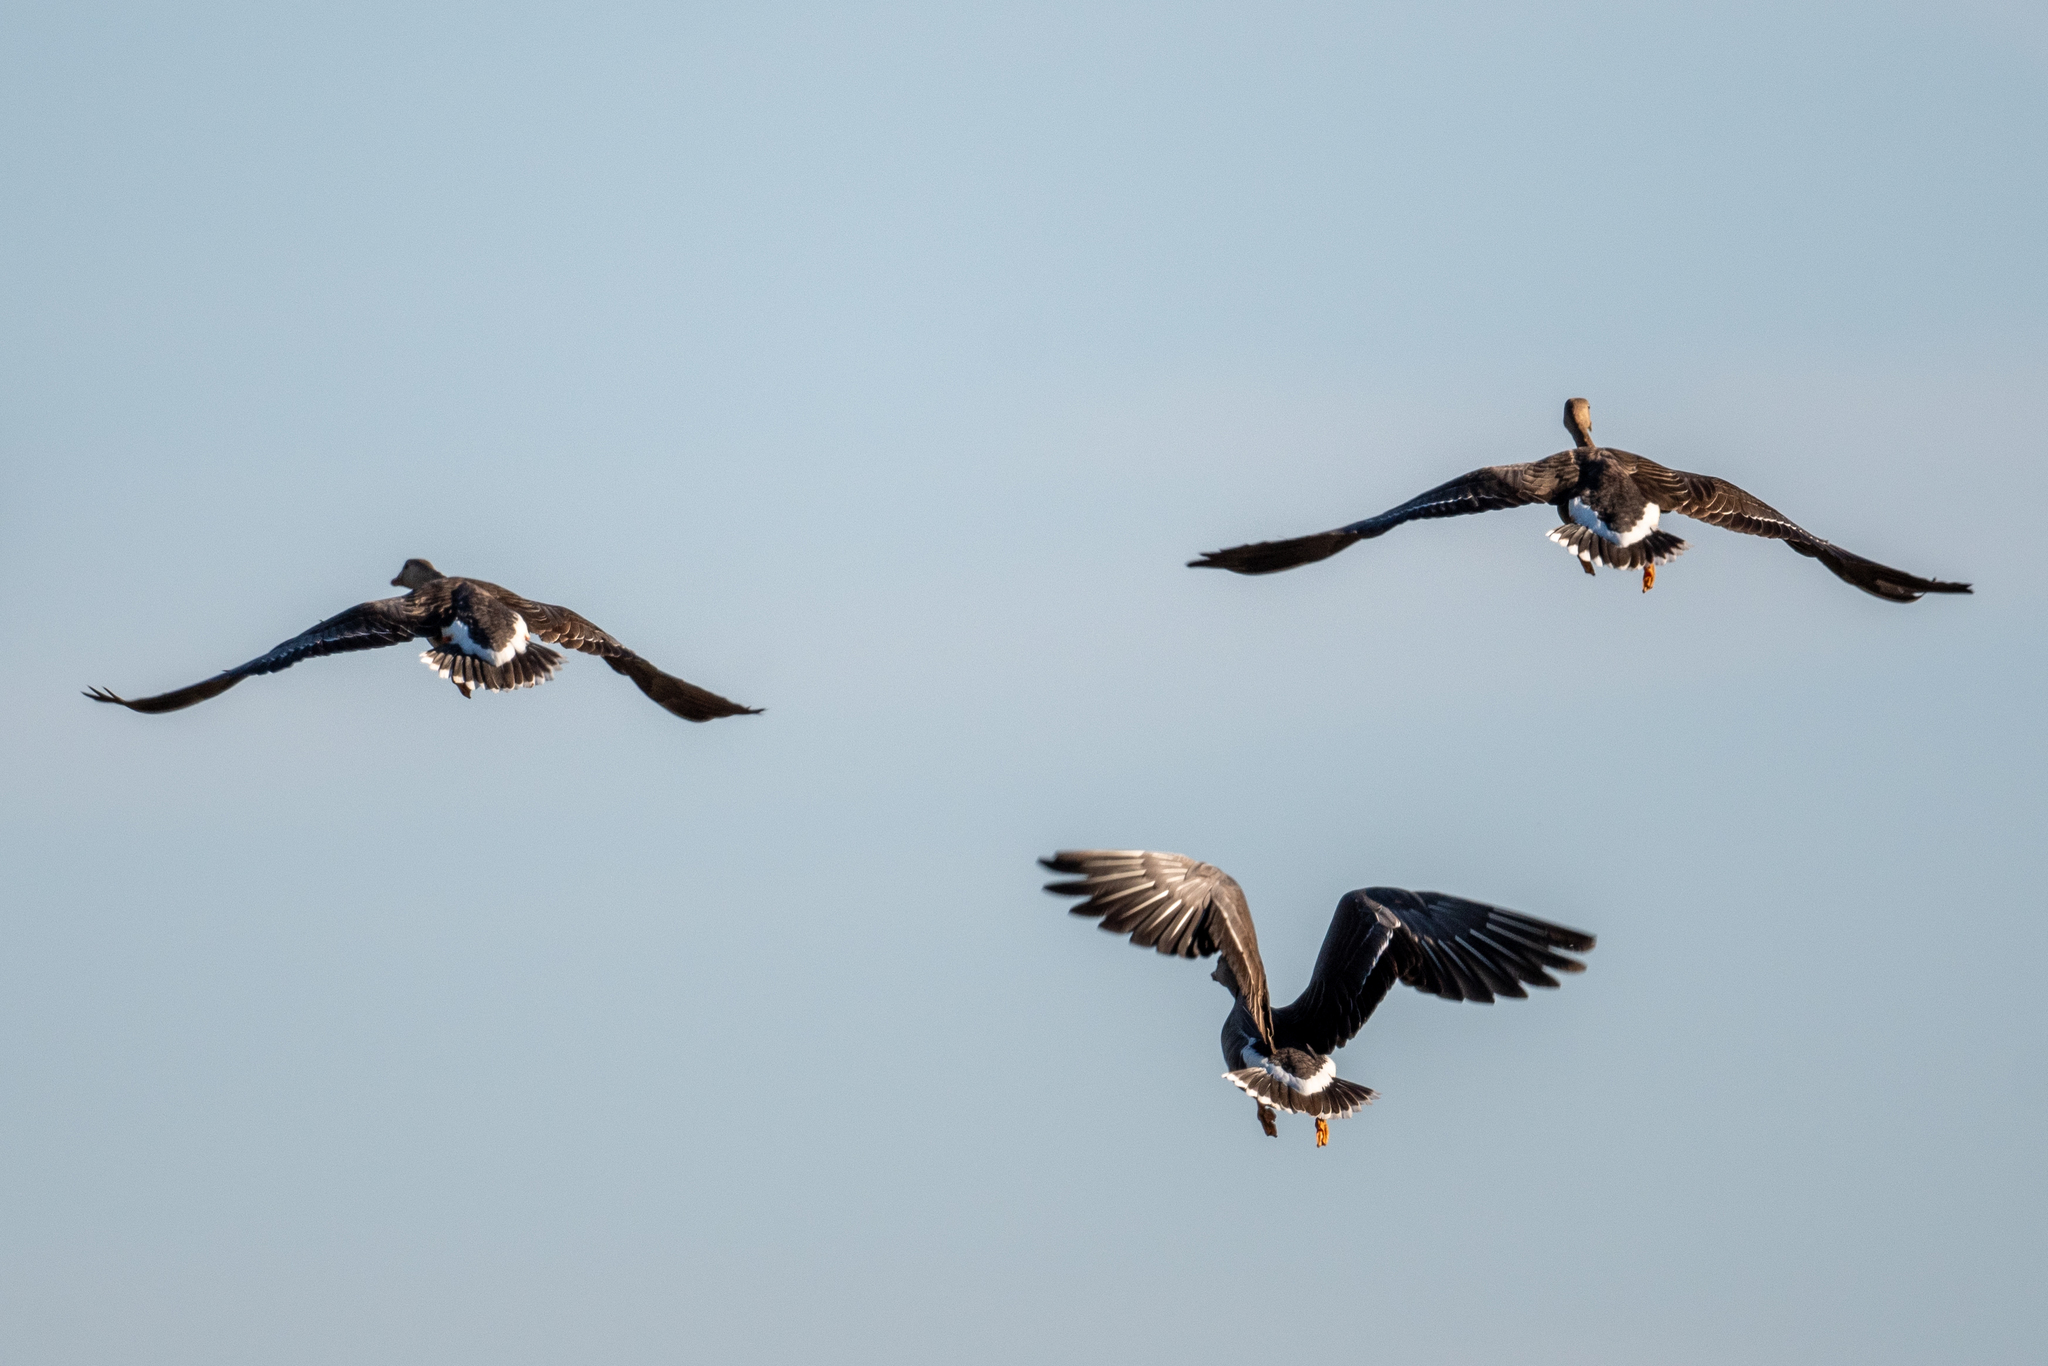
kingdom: Animalia
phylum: Chordata
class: Aves
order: Anseriformes
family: Anatidae
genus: Anser
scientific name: Anser albifrons
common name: Greater white-fronted goose
